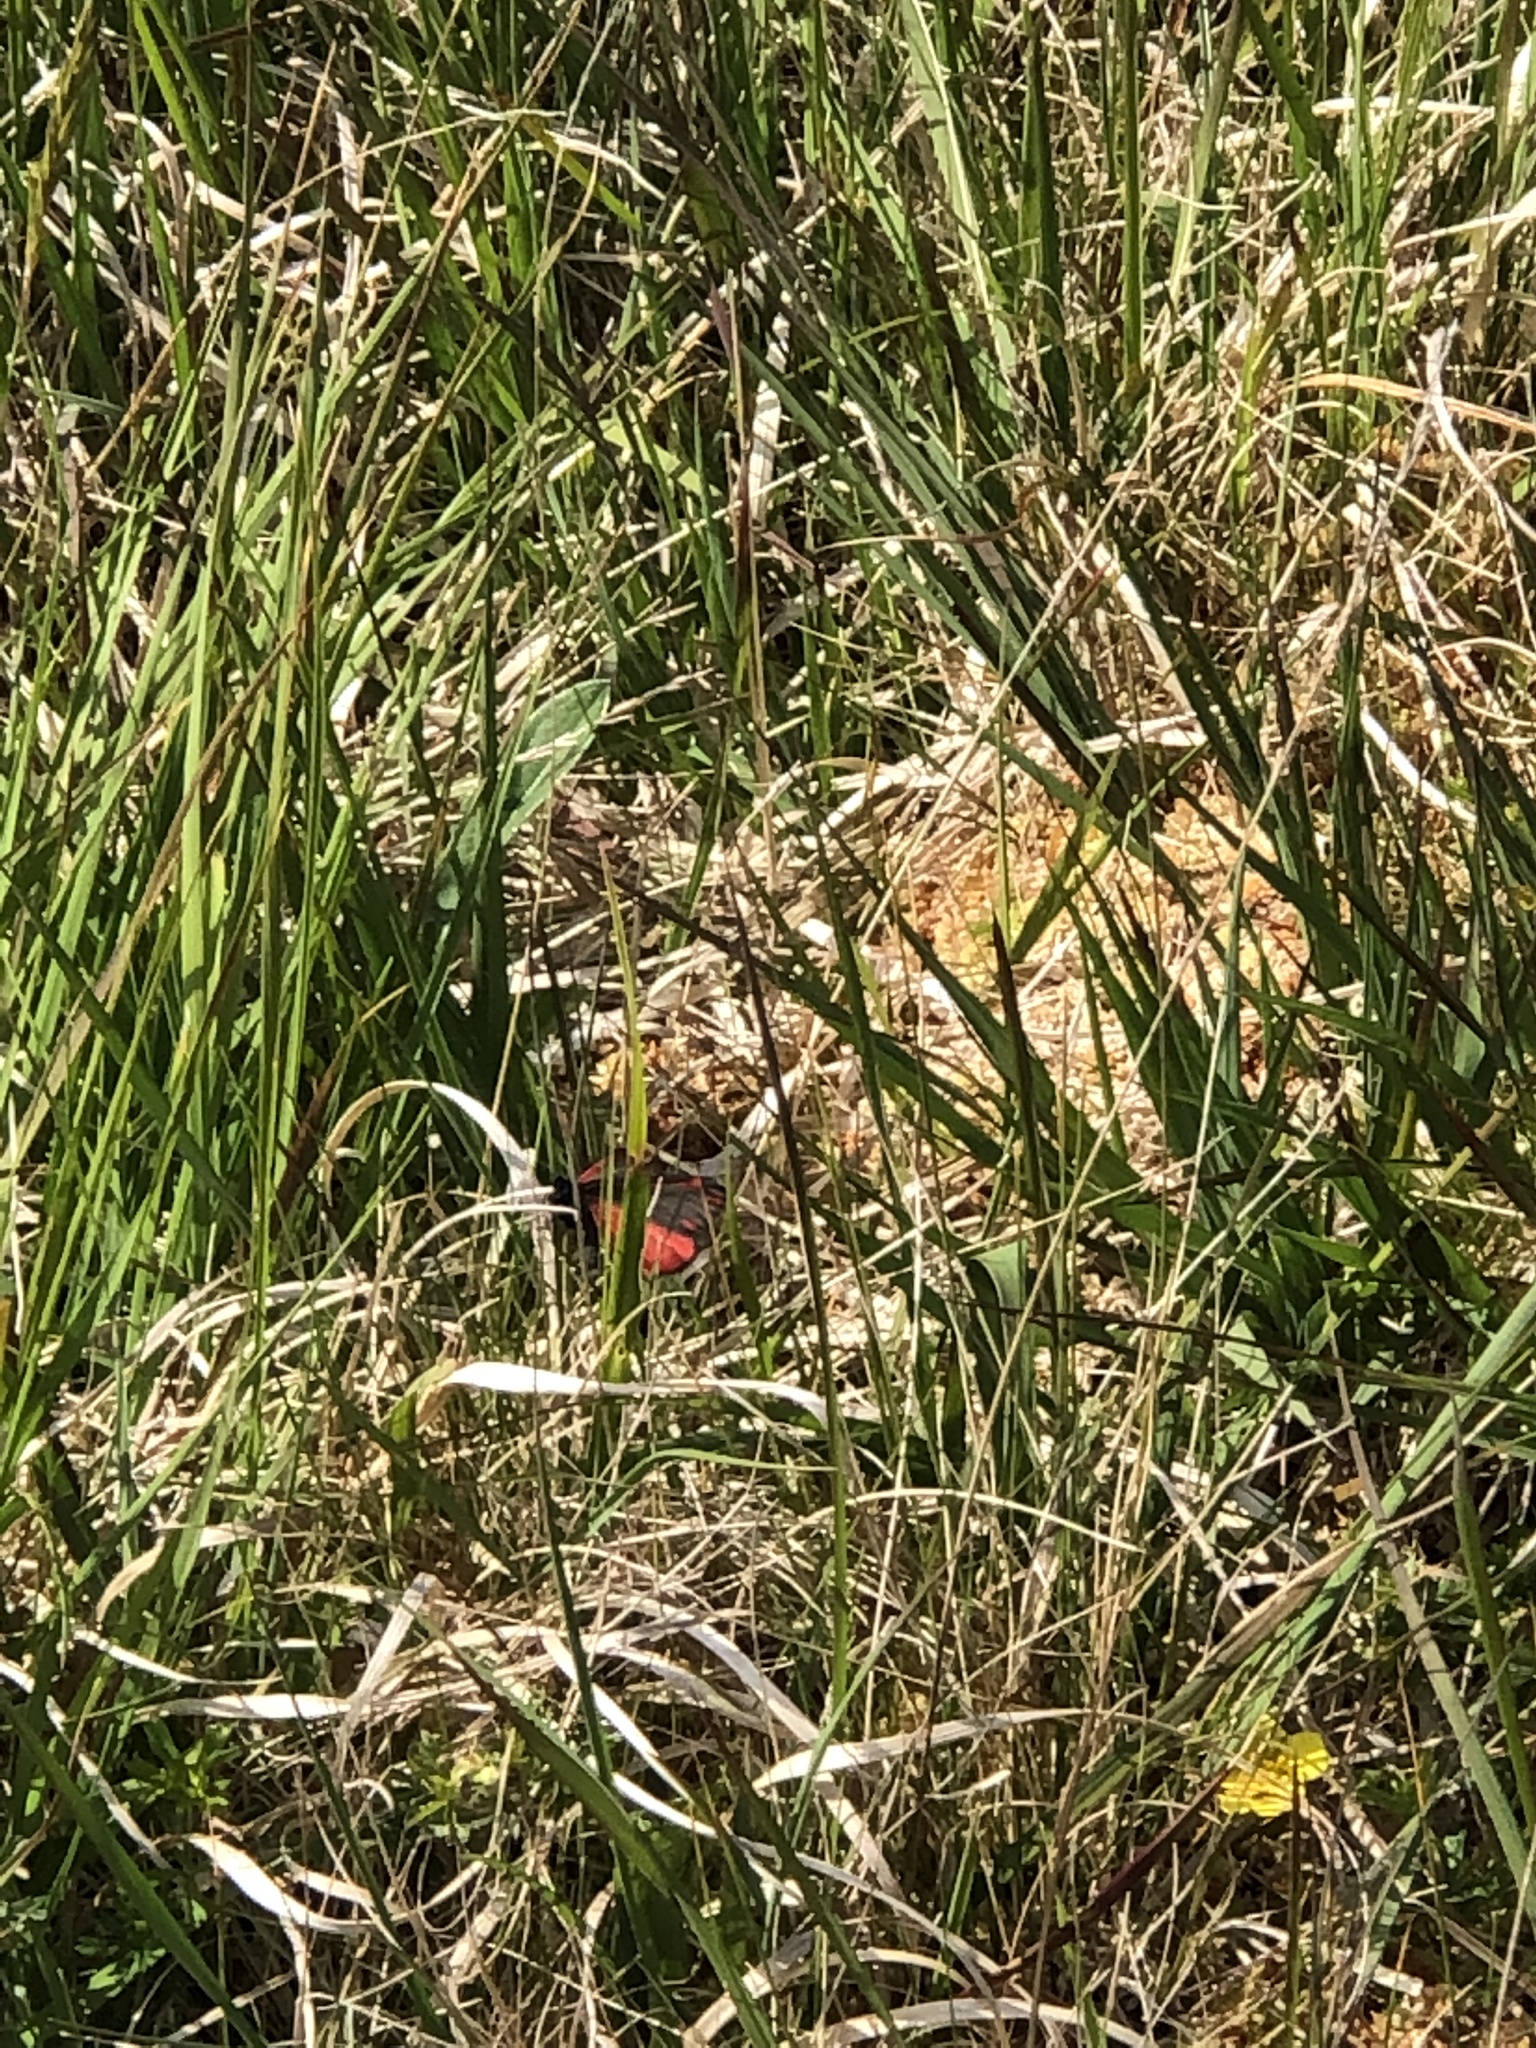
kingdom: Animalia
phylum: Arthropoda
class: Insecta
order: Lepidoptera
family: Erebidae
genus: Tyria
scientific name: Tyria jacobaeae
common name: Cinnabar
